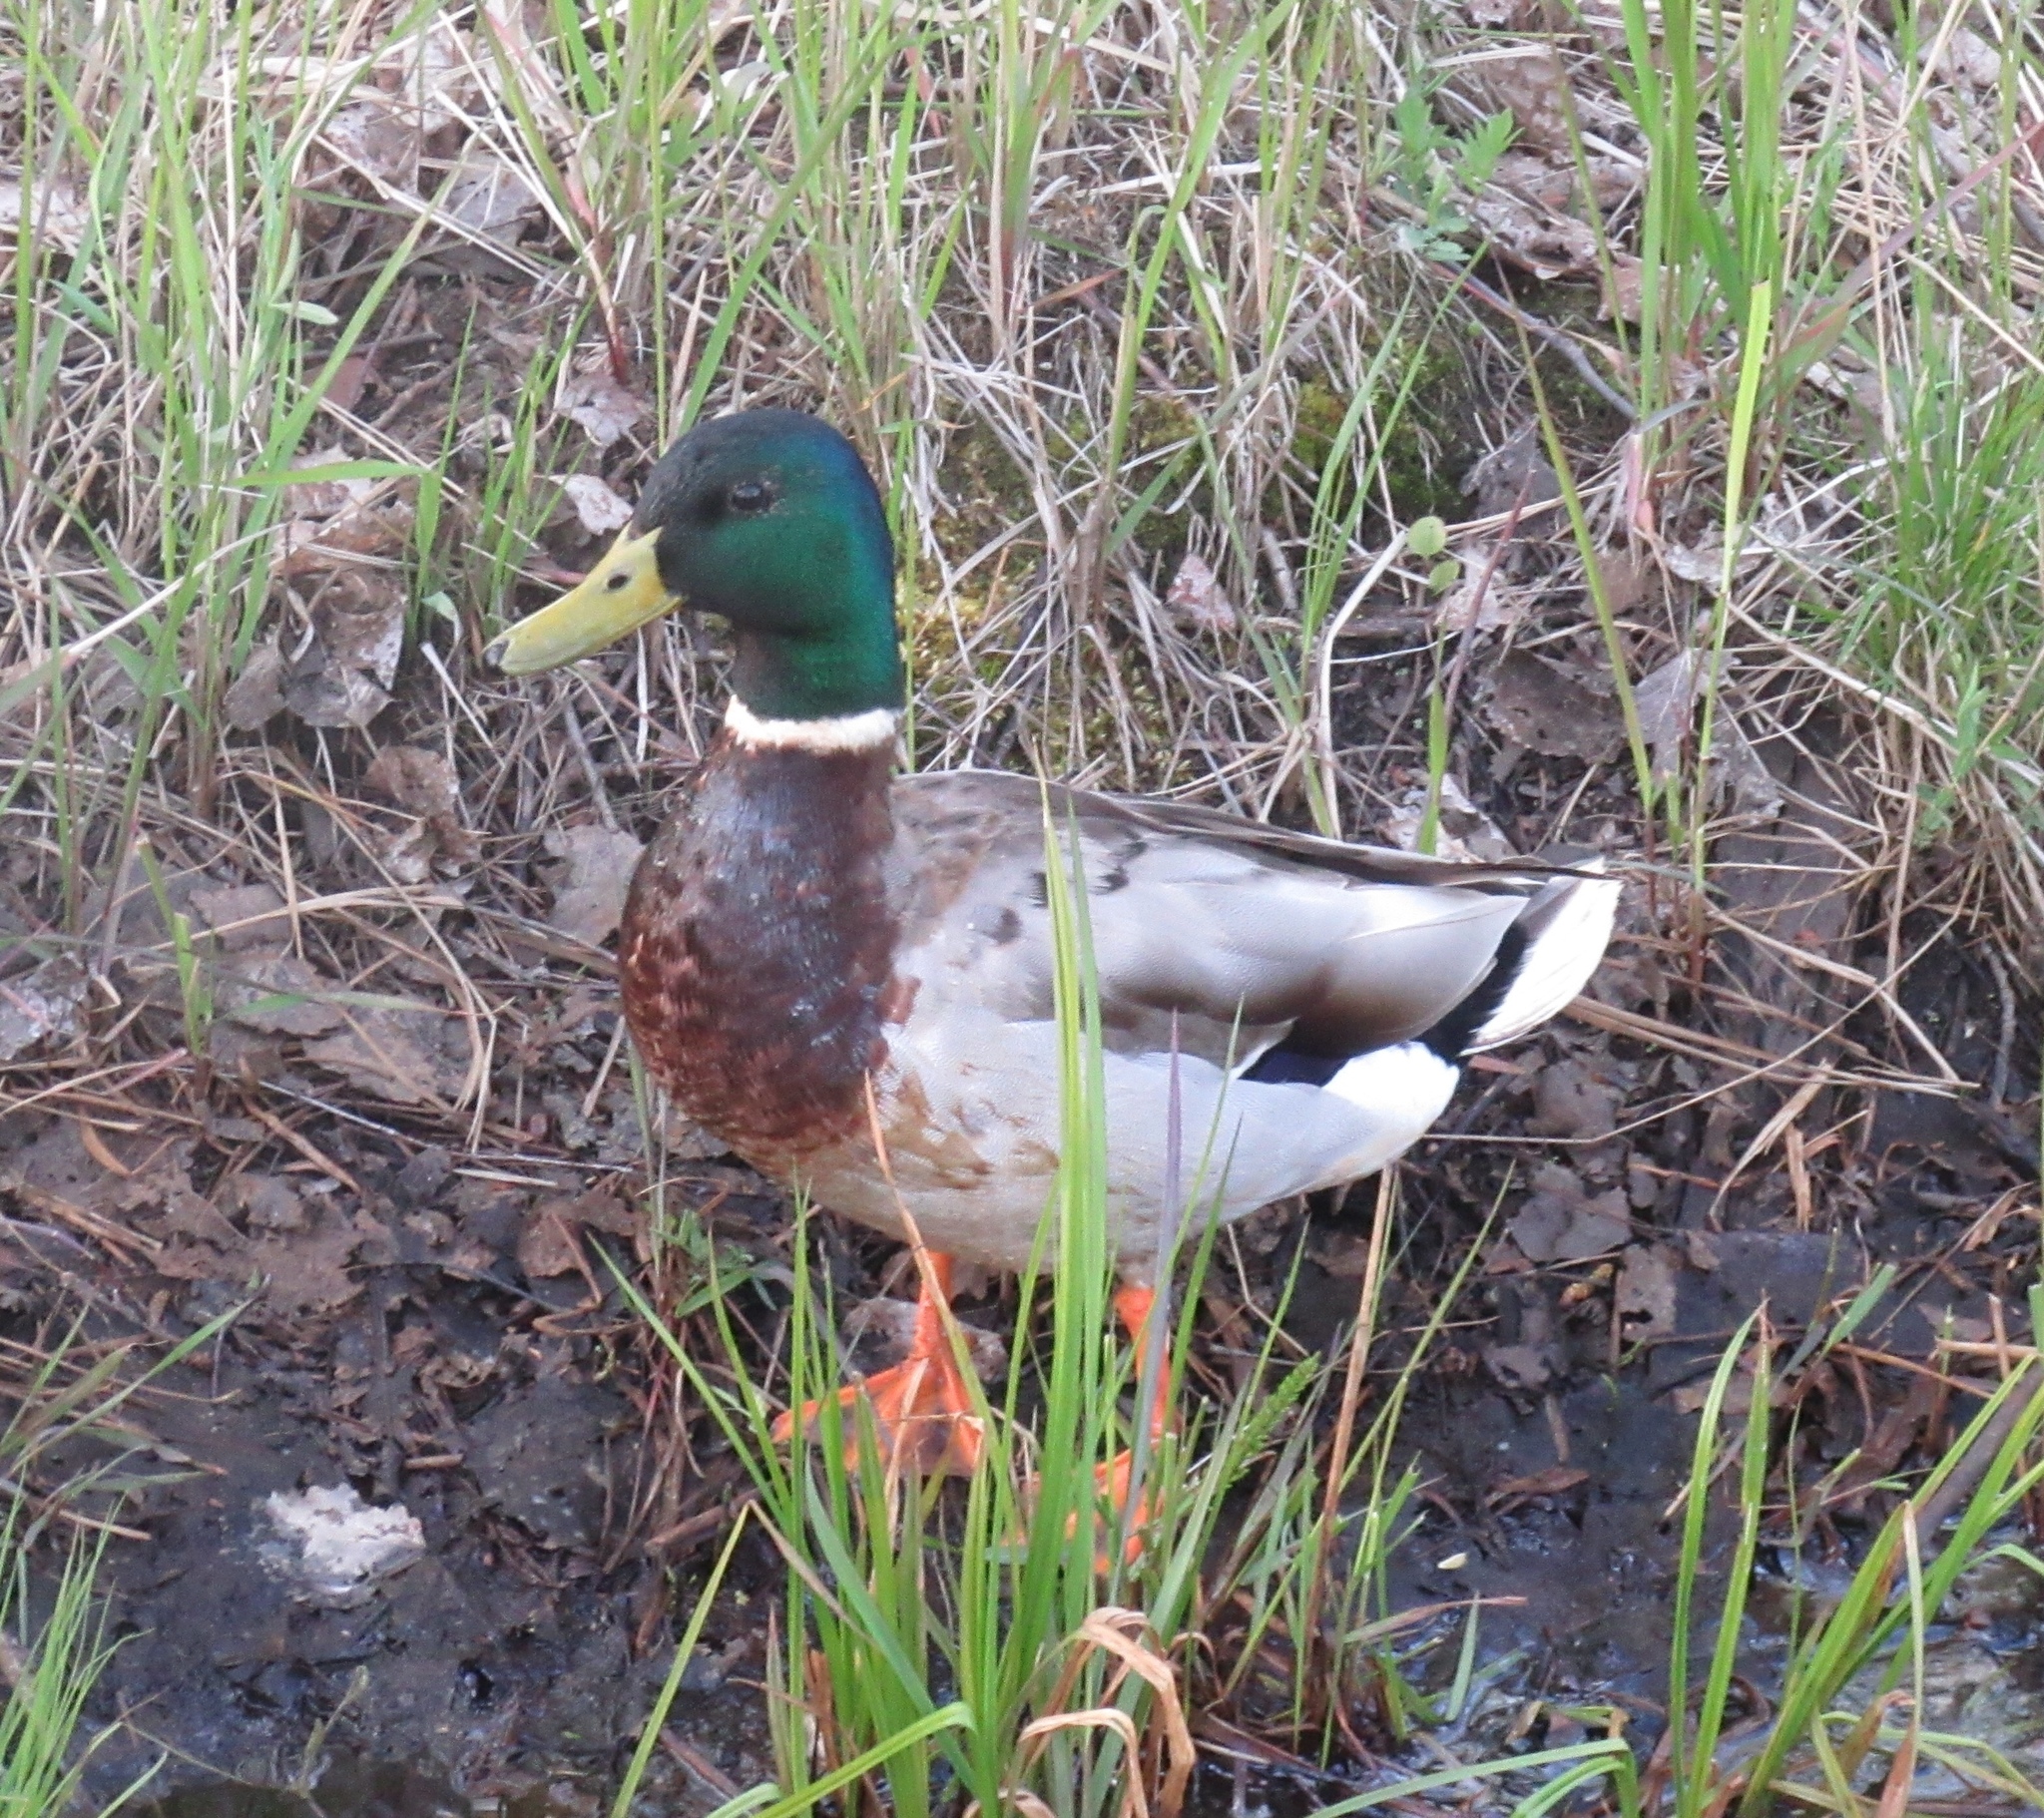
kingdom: Animalia
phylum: Chordata
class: Aves
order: Anseriformes
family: Anatidae
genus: Anas
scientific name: Anas platyrhynchos
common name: Mallard
